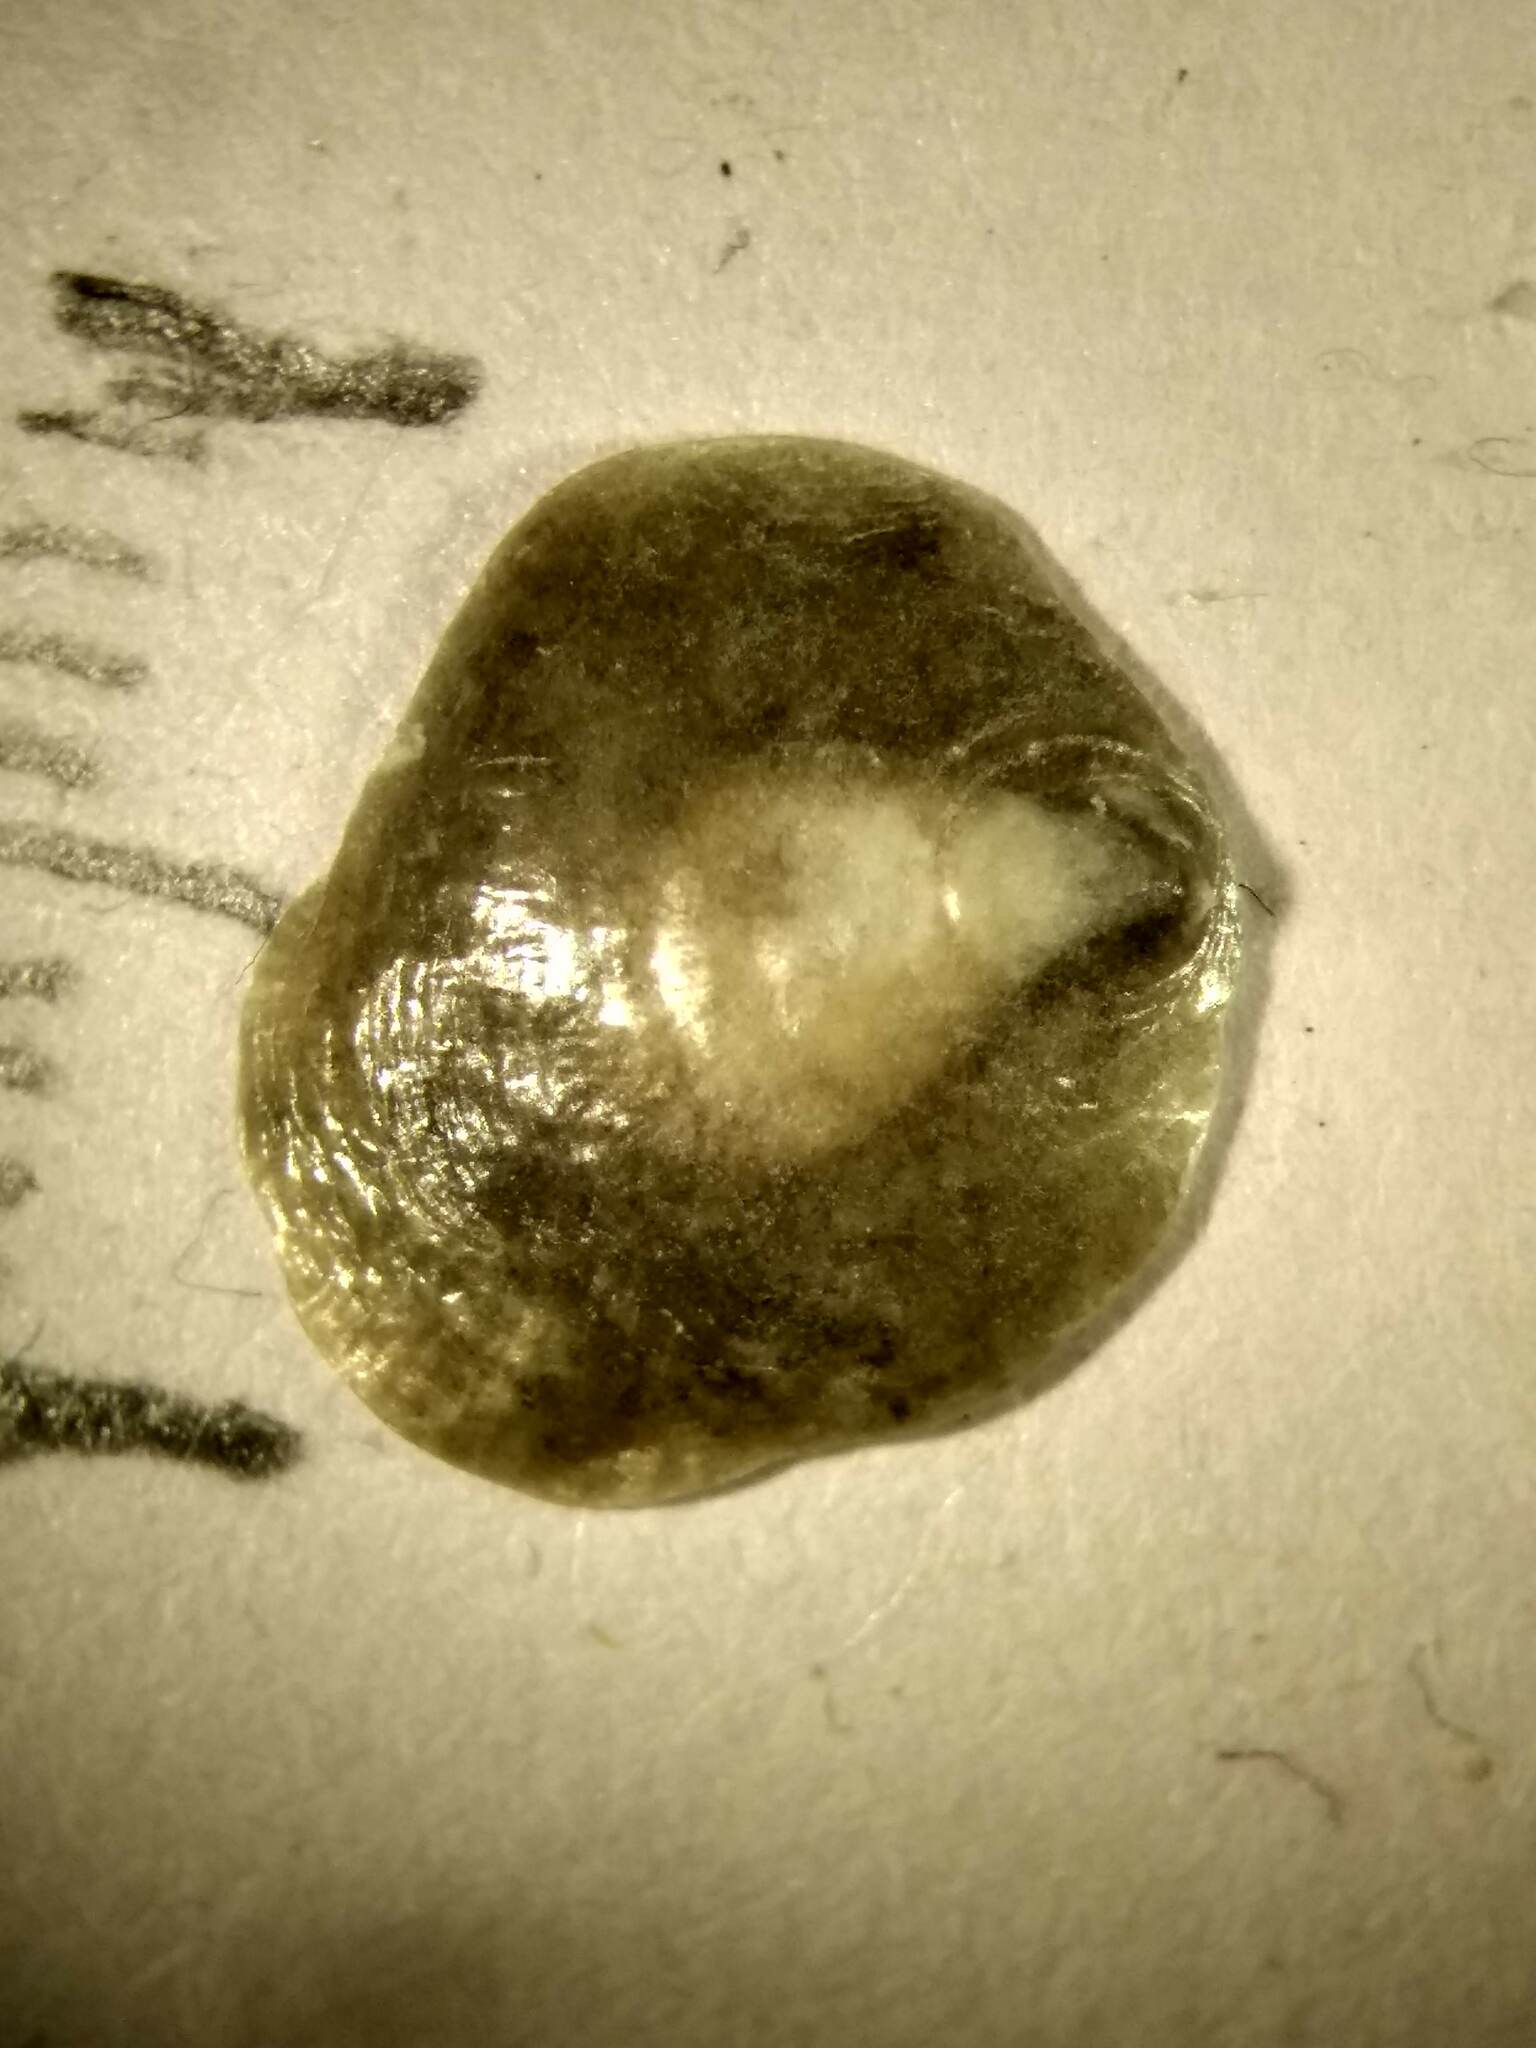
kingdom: Animalia
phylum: Mollusca
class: Bivalvia
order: Pectinida
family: Anomiidae
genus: Anomia
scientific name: Anomia simplex
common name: Common jingle shell
